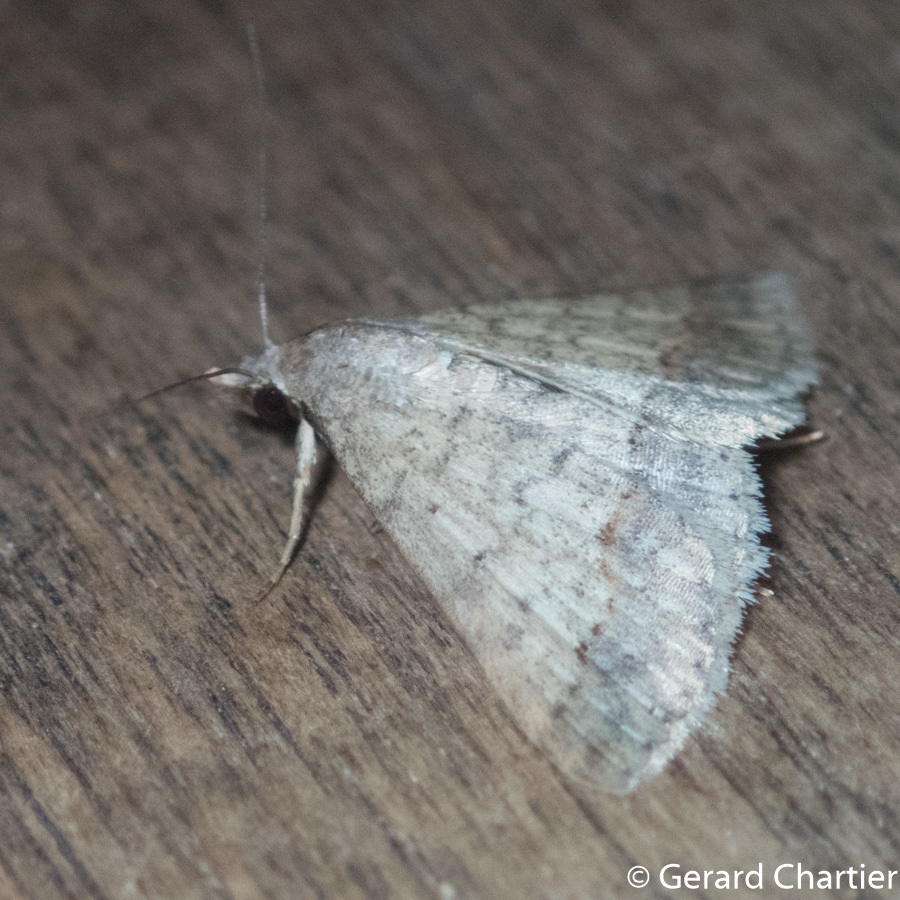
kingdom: Animalia
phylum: Arthropoda
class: Insecta
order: Lepidoptera
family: Erebidae
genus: Gesonia
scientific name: Gesonia obeditalis
